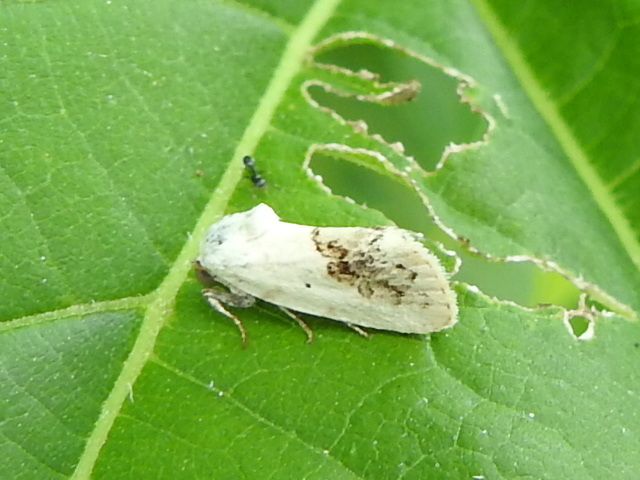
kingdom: Animalia
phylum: Arthropoda
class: Insecta
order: Lepidoptera
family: Noctuidae
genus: Acontia
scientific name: Acontia erastrioides
